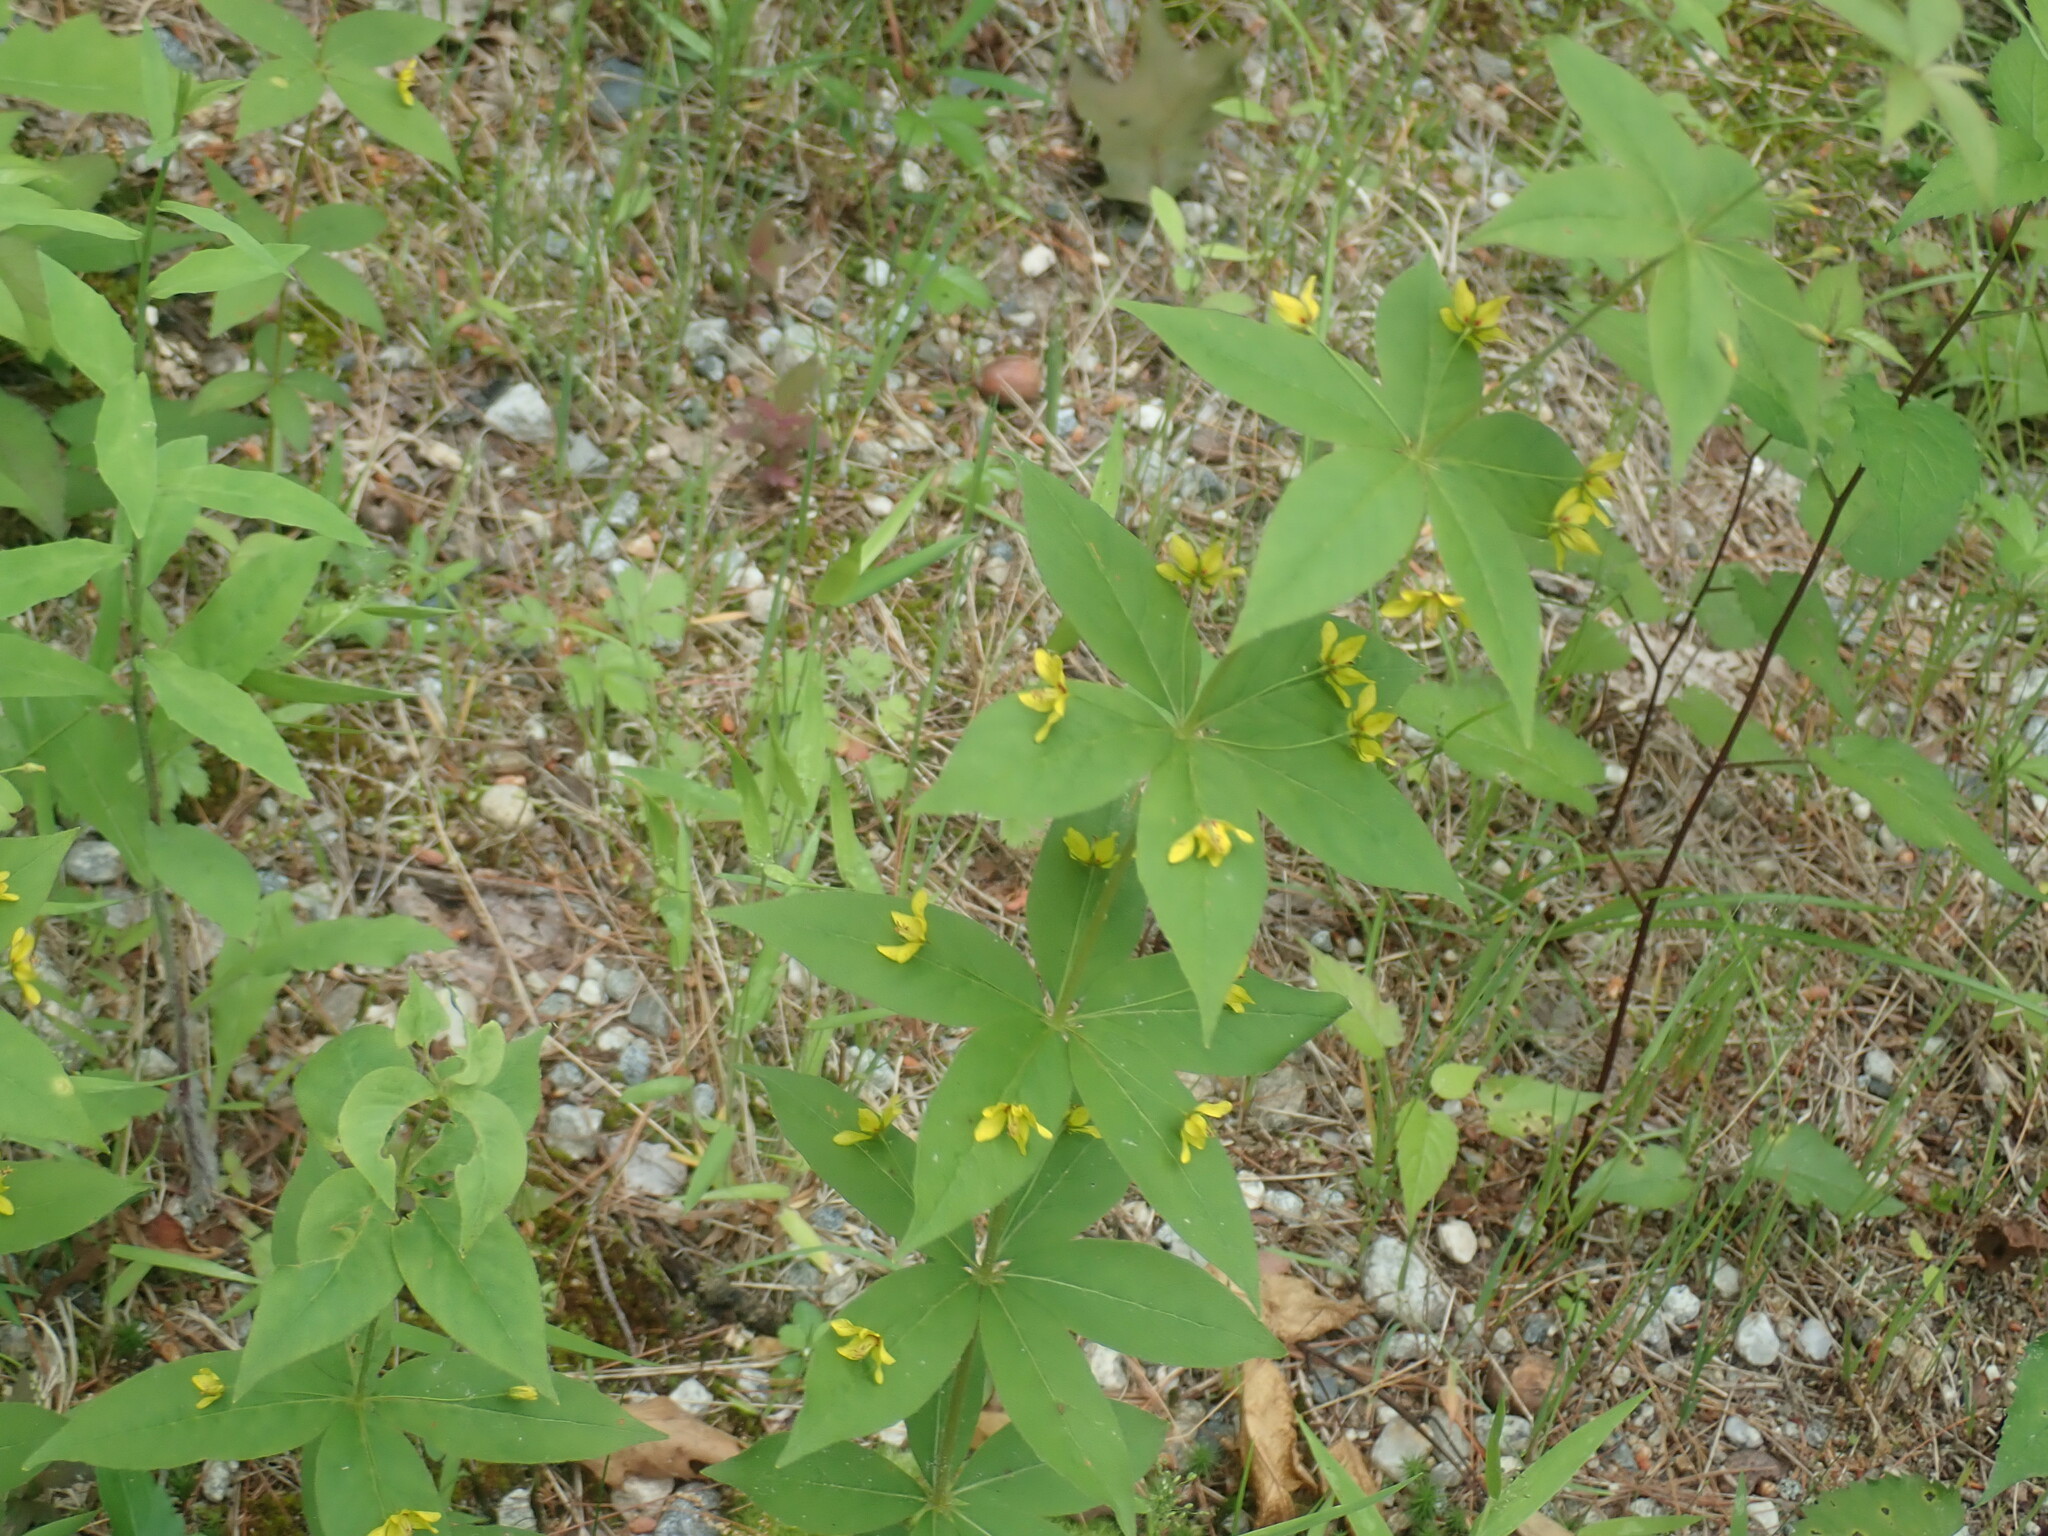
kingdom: Plantae
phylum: Tracheophyta
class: Magnoliopsida
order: Ericales
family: Primulaceae
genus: Lysimachia
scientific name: Lysimachia quadrifolia
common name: Whorled loosestrife
